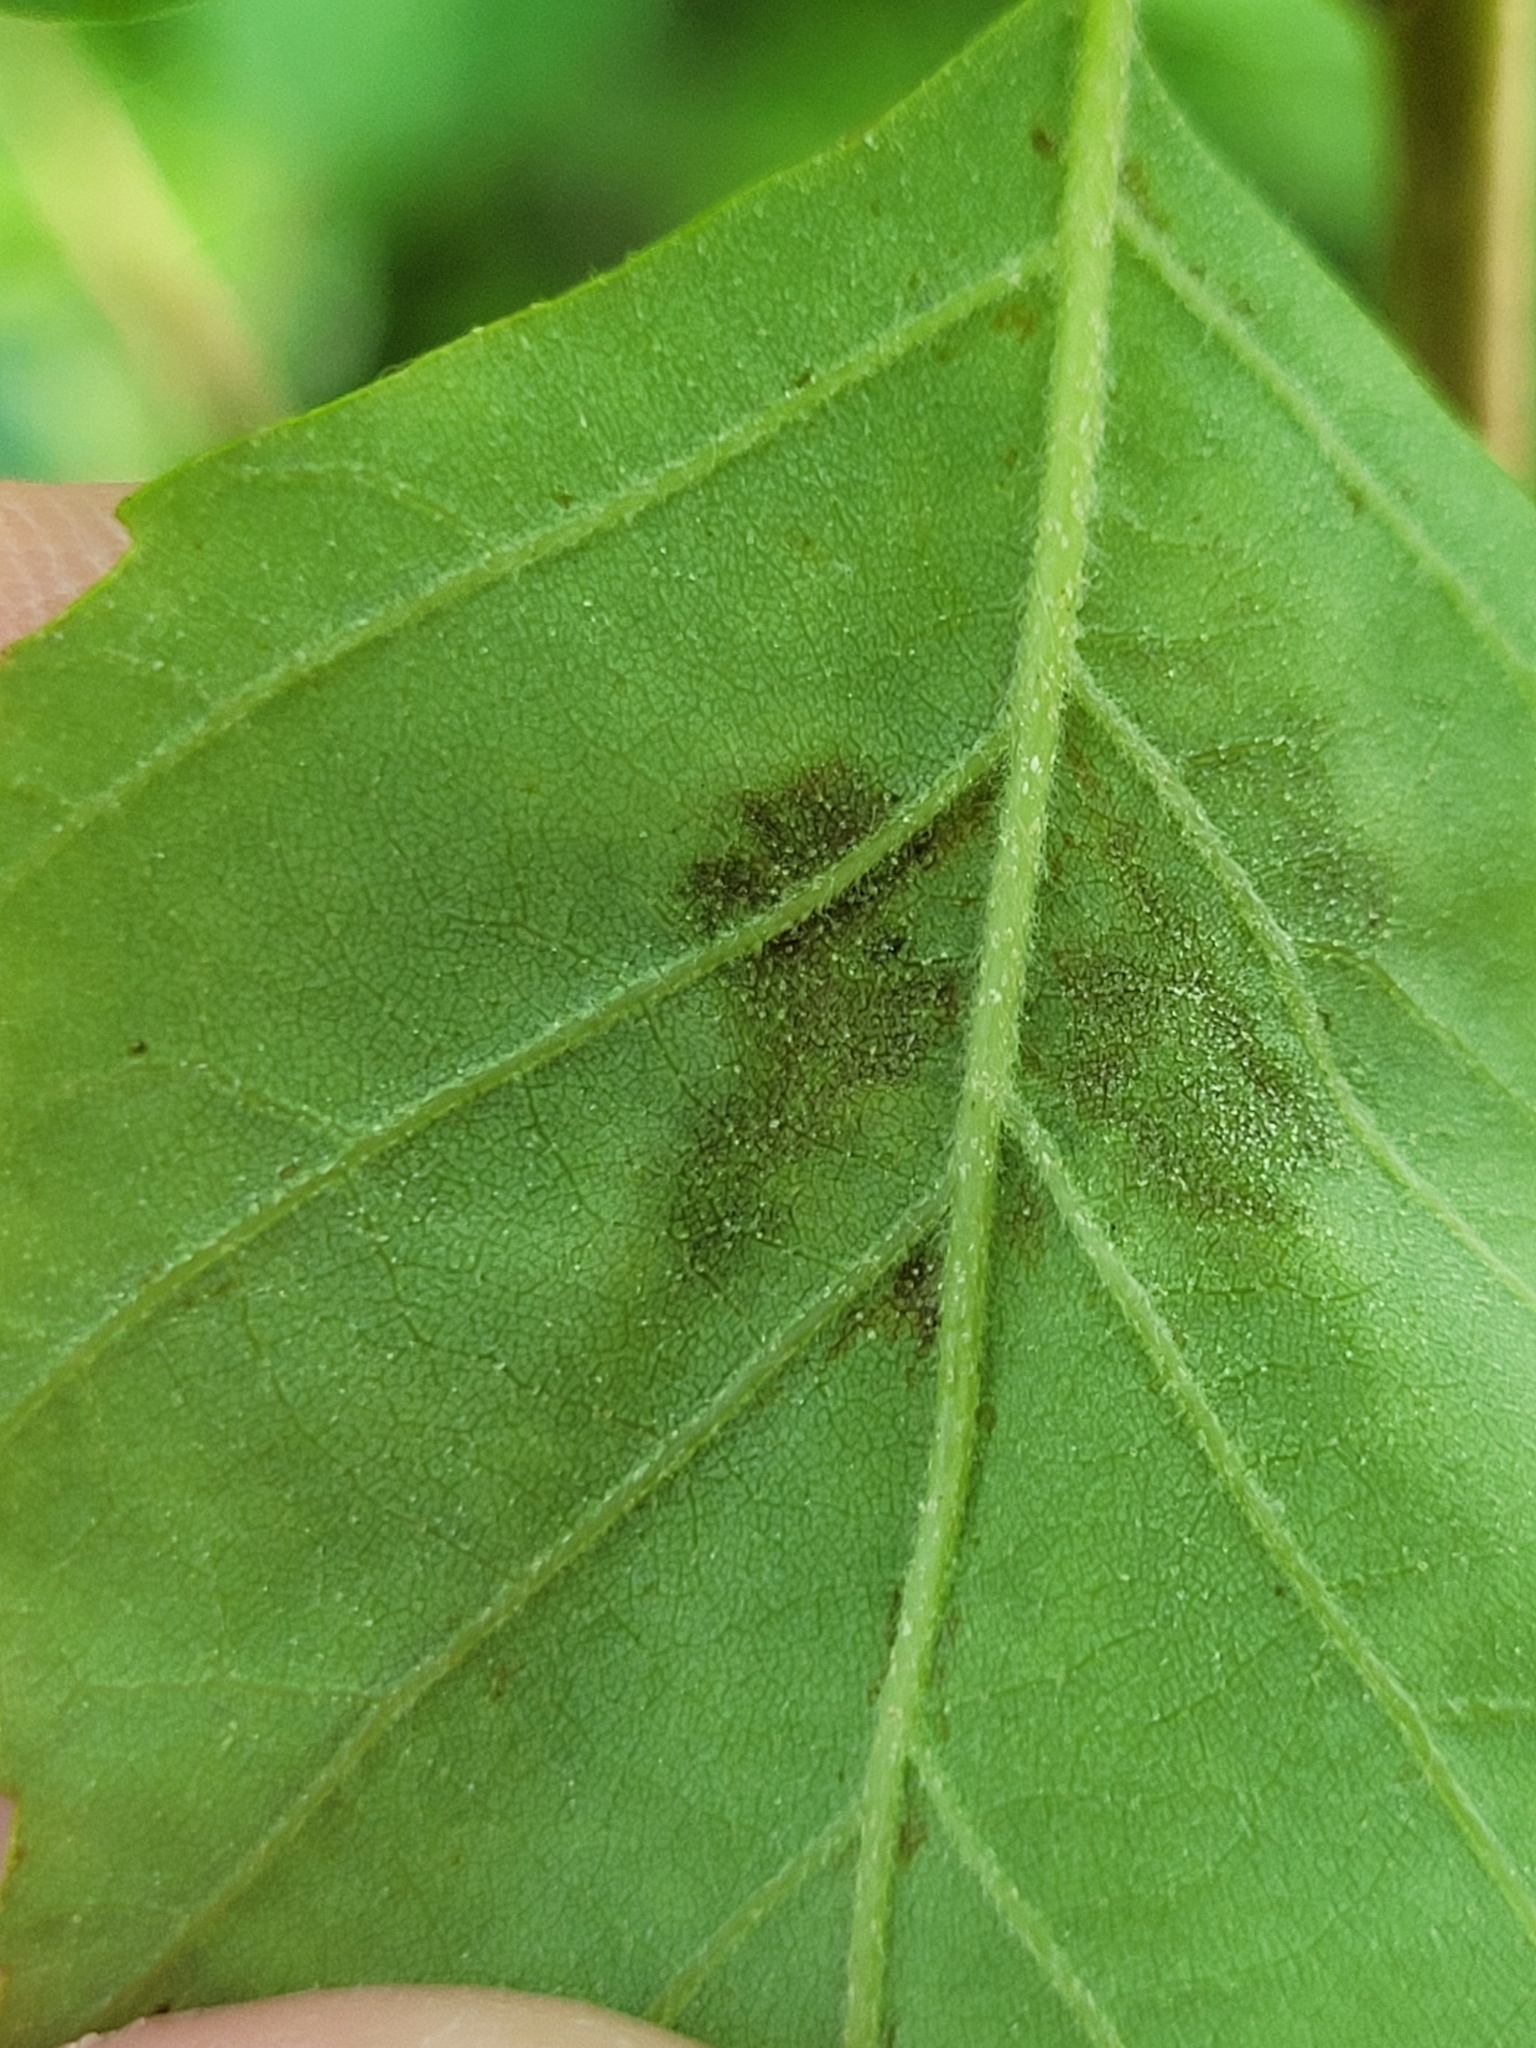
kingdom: Animalia
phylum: Arthropoda
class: Arachnida
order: Trombidiformes
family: Eriophyidae
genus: Acalitus
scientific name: Acalitus longisetosus
